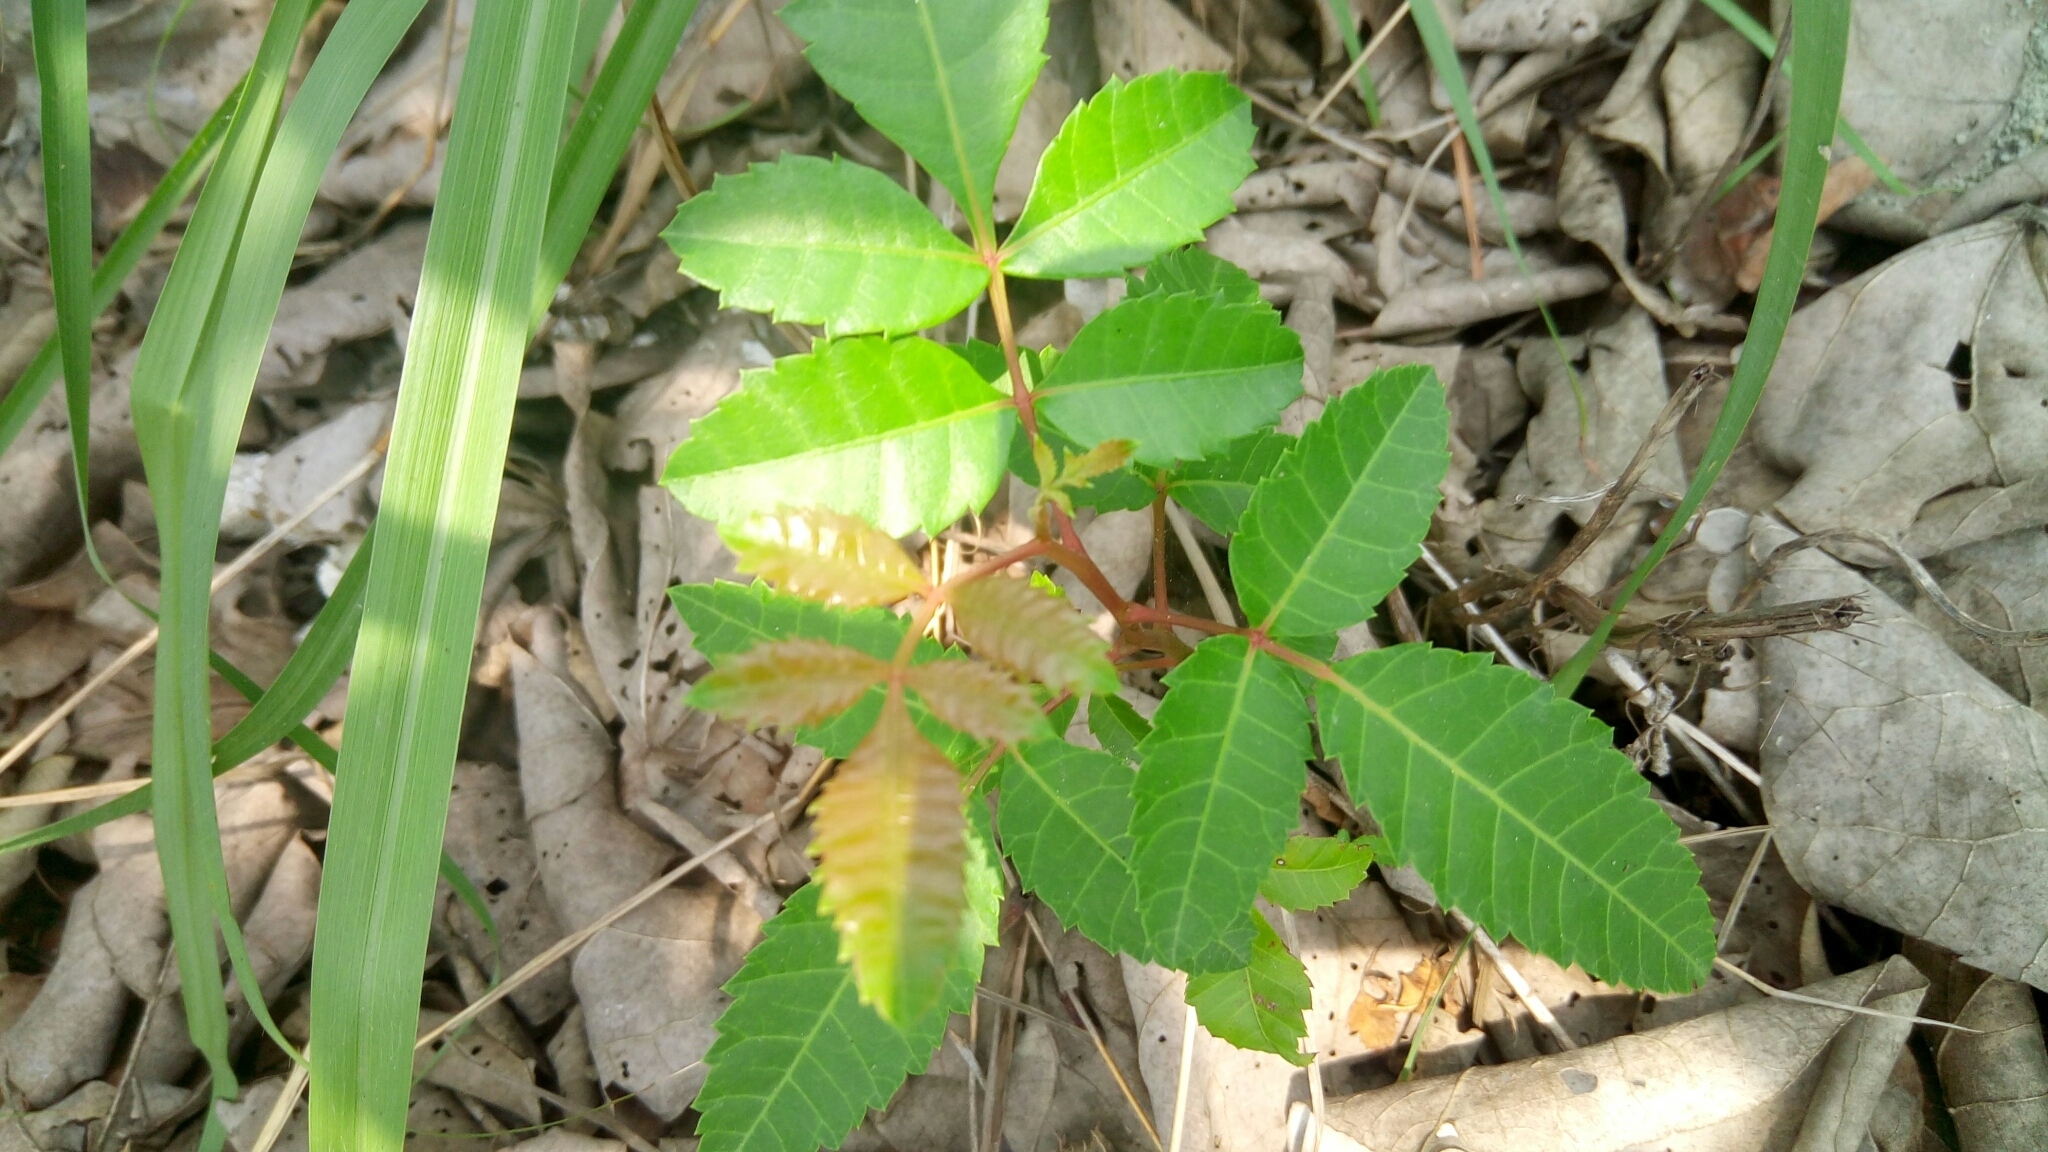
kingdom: Plantae
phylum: Tracheophyta
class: Magnoliopsida
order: Sapindales
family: Anacardiaceae
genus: Schinus
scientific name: Schinus terebinthifolia
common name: Brazilian peppertree
